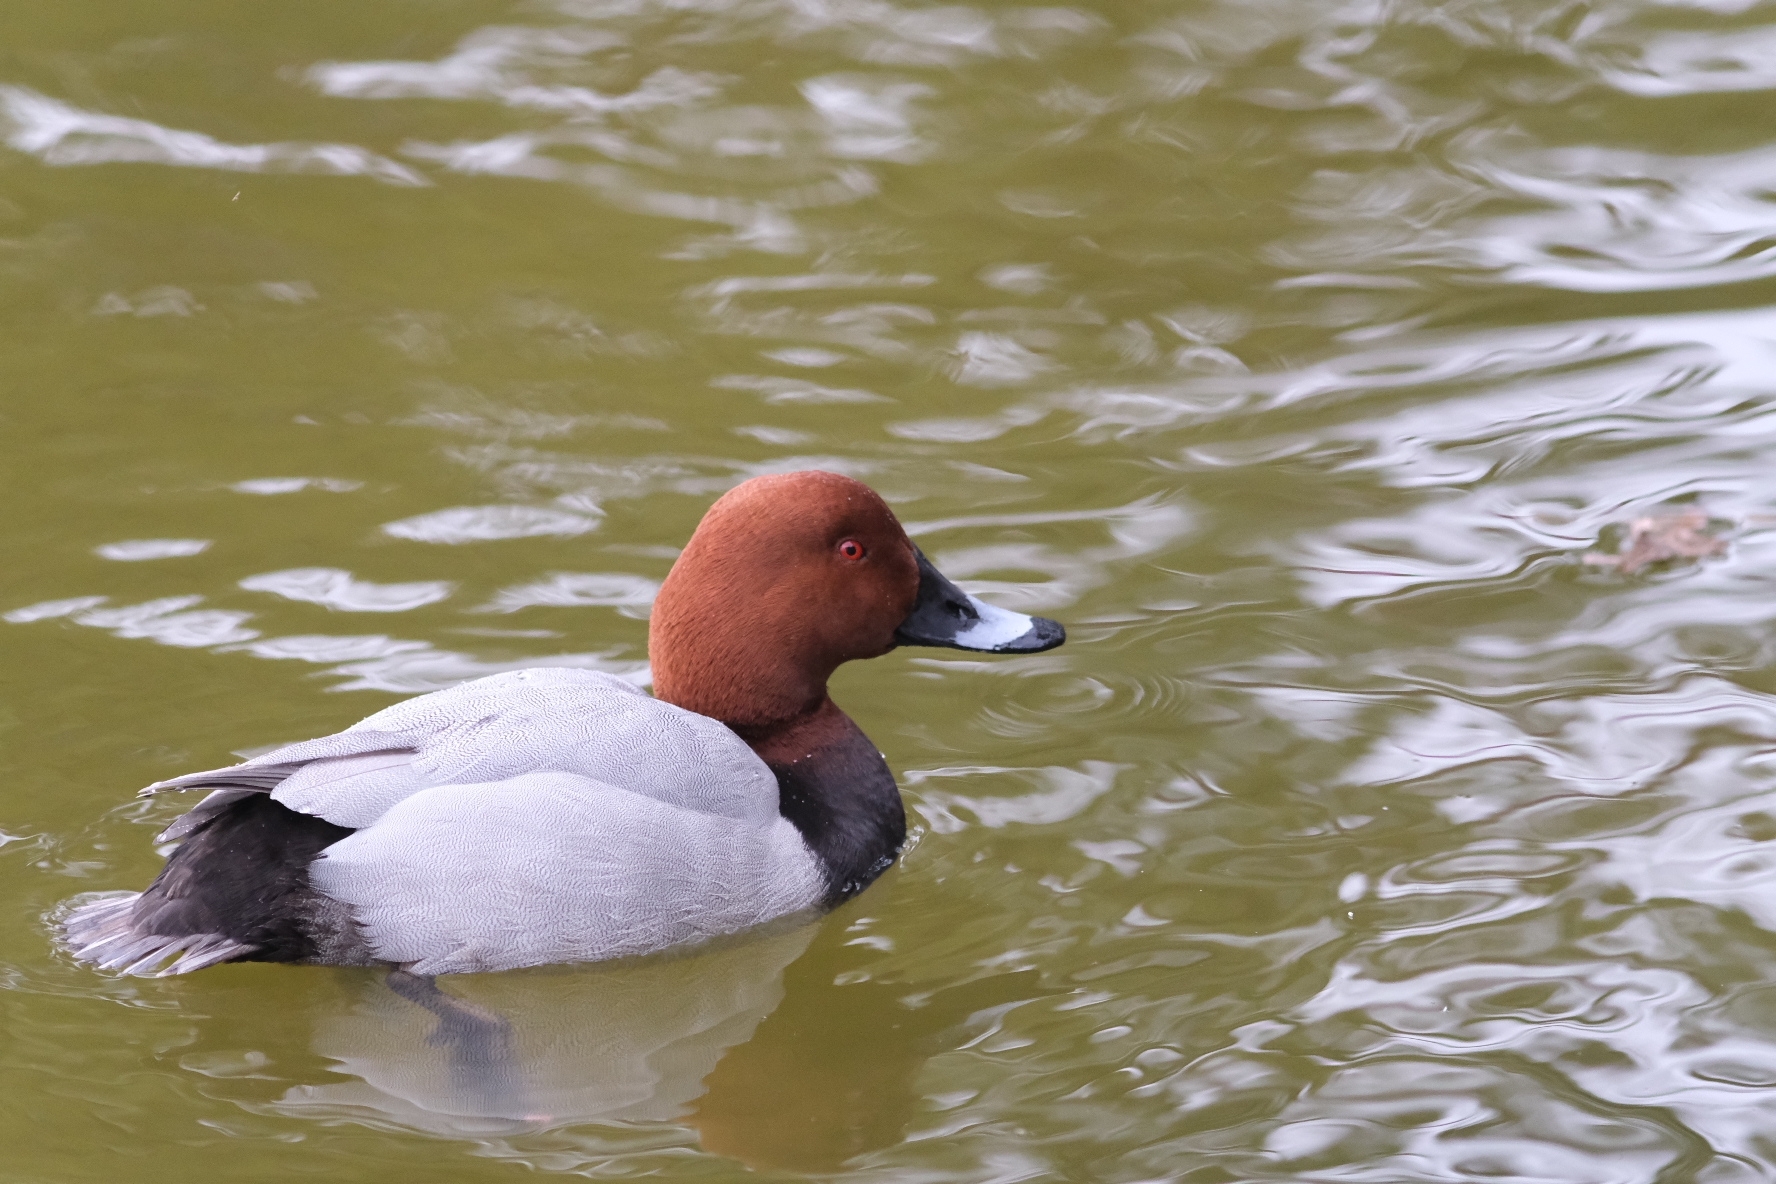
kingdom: Animalia
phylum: Chordata
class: Aves
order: Anseriformes
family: Anatidae
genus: Aythya
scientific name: Aythya ferina
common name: Common pochard
